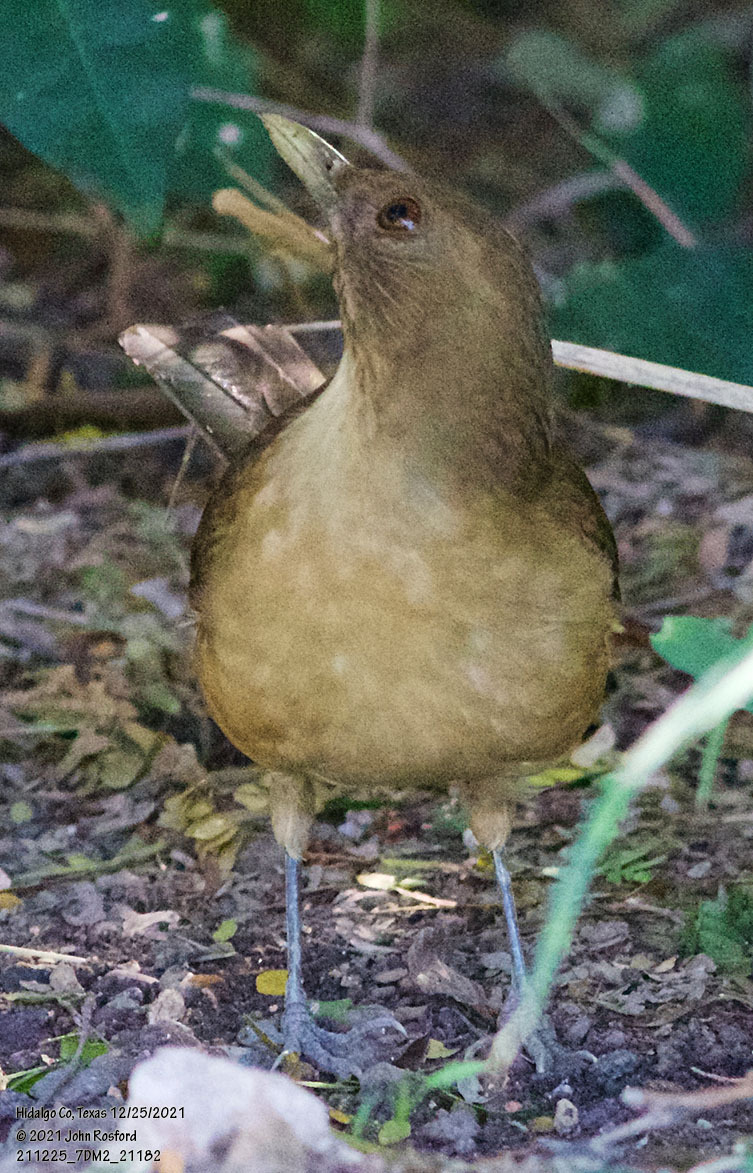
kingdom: Animalia
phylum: Chordata
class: Aves
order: Passeriformes
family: Turdidae
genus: Turdus
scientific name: Turdus grayi
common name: Clay-colored thrush
